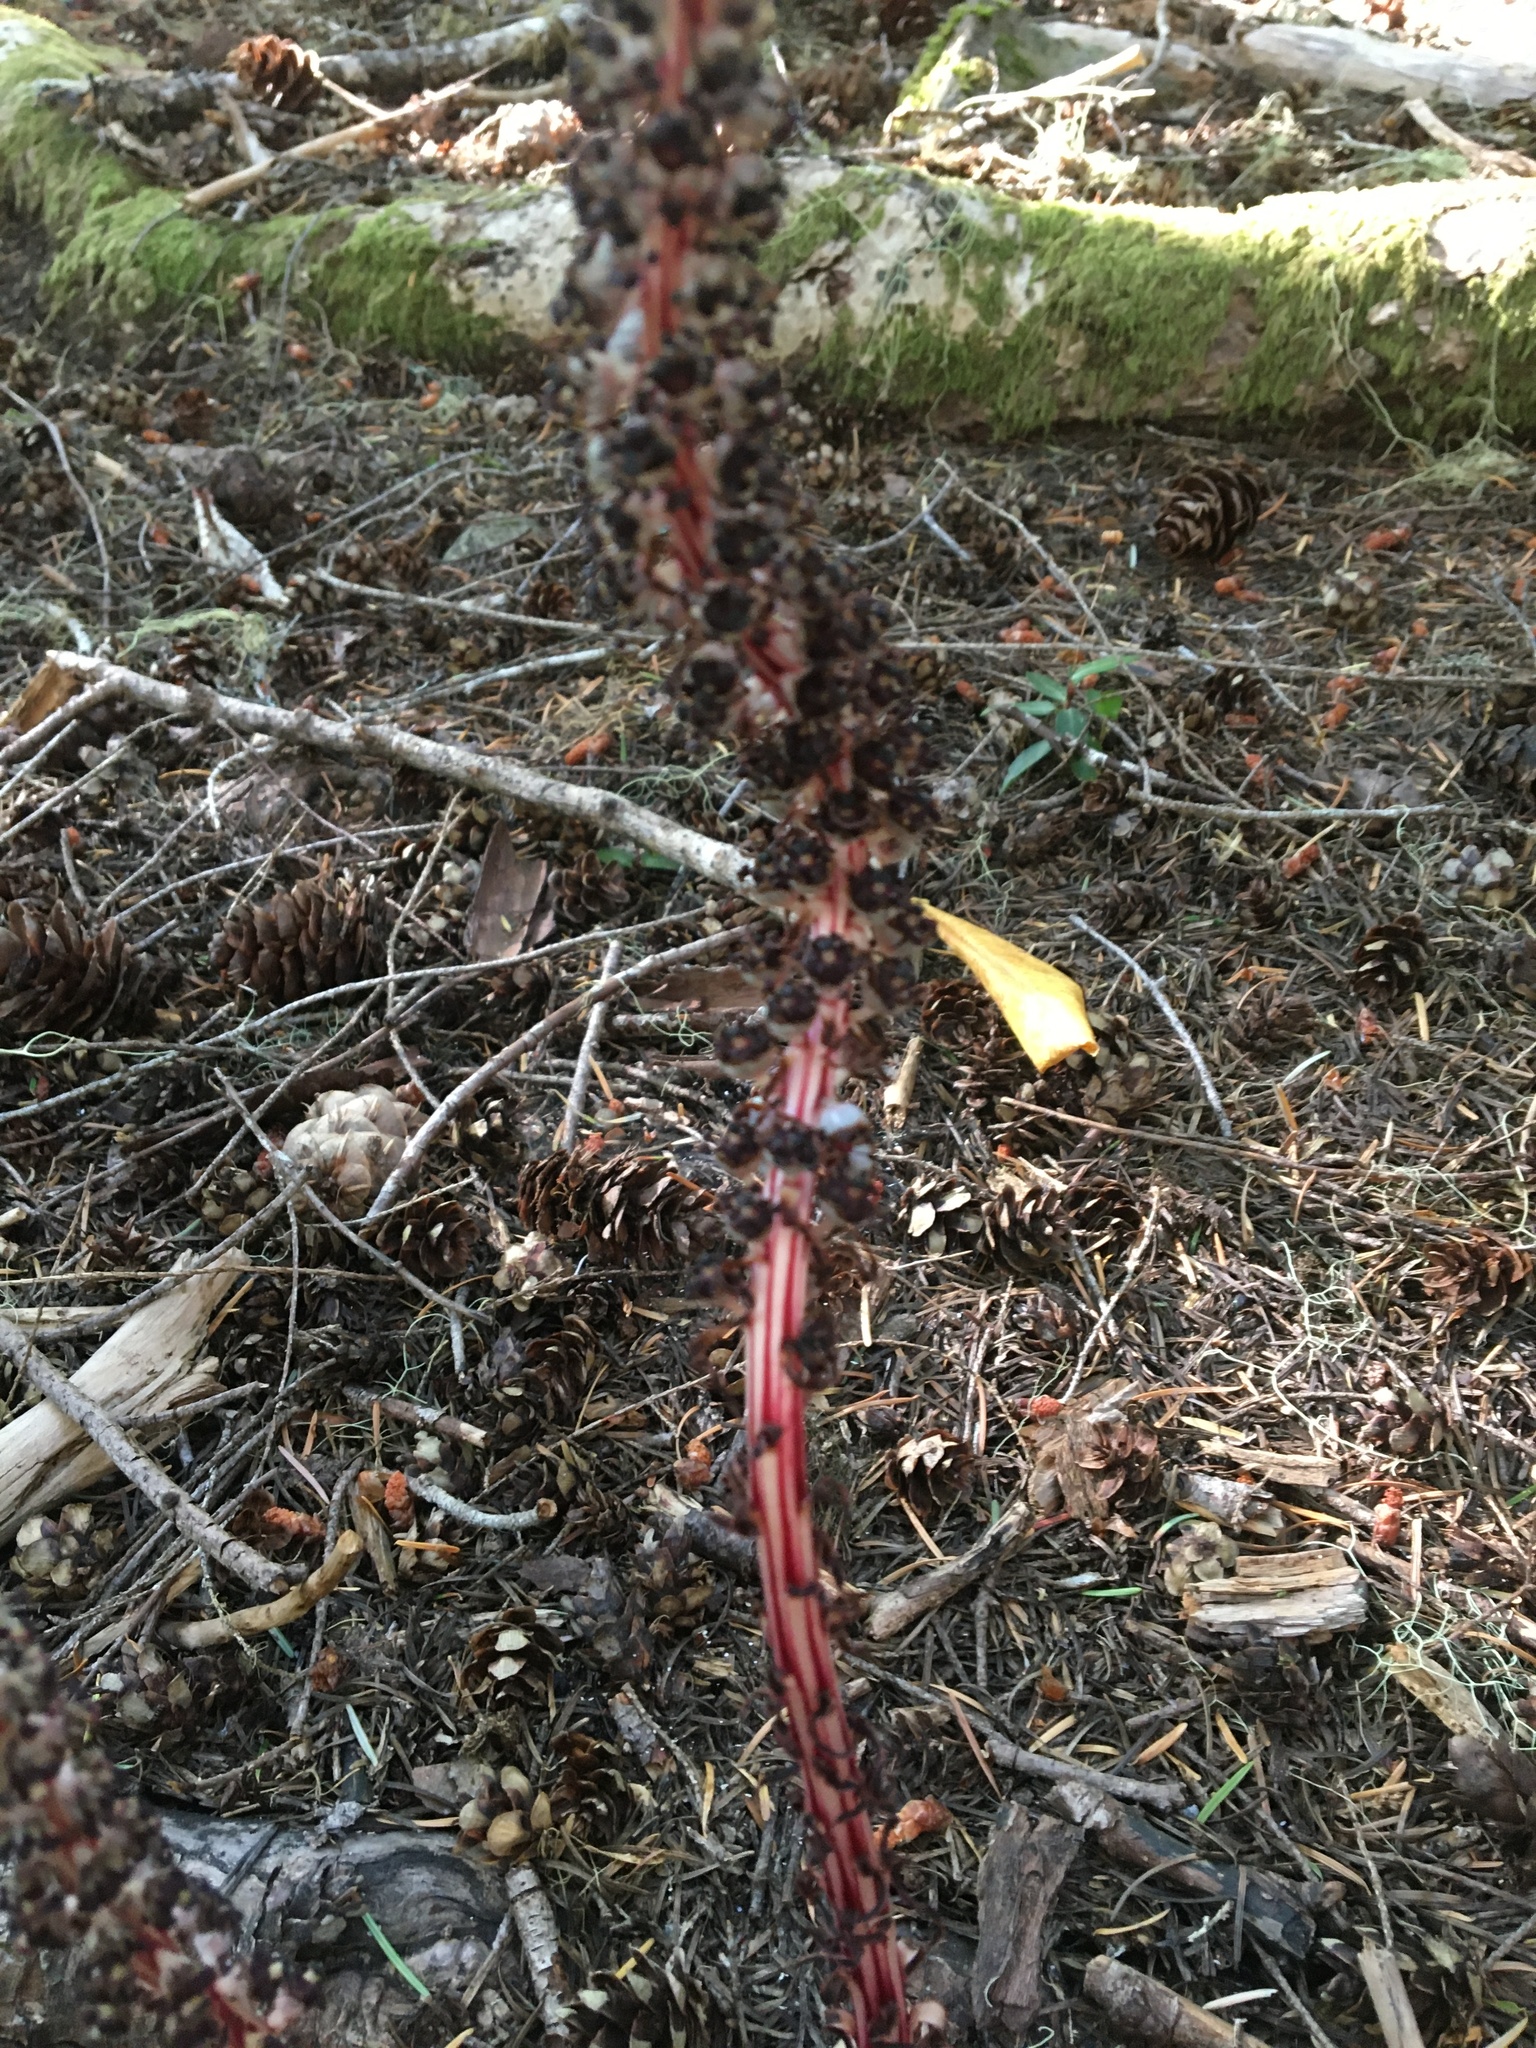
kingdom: Plantae
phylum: Tracheophyta
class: Magnoliopsida
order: Ericales
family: Ericaceae
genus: Allotropa
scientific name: Allotropa virgata
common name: Candy-striped allotropa
